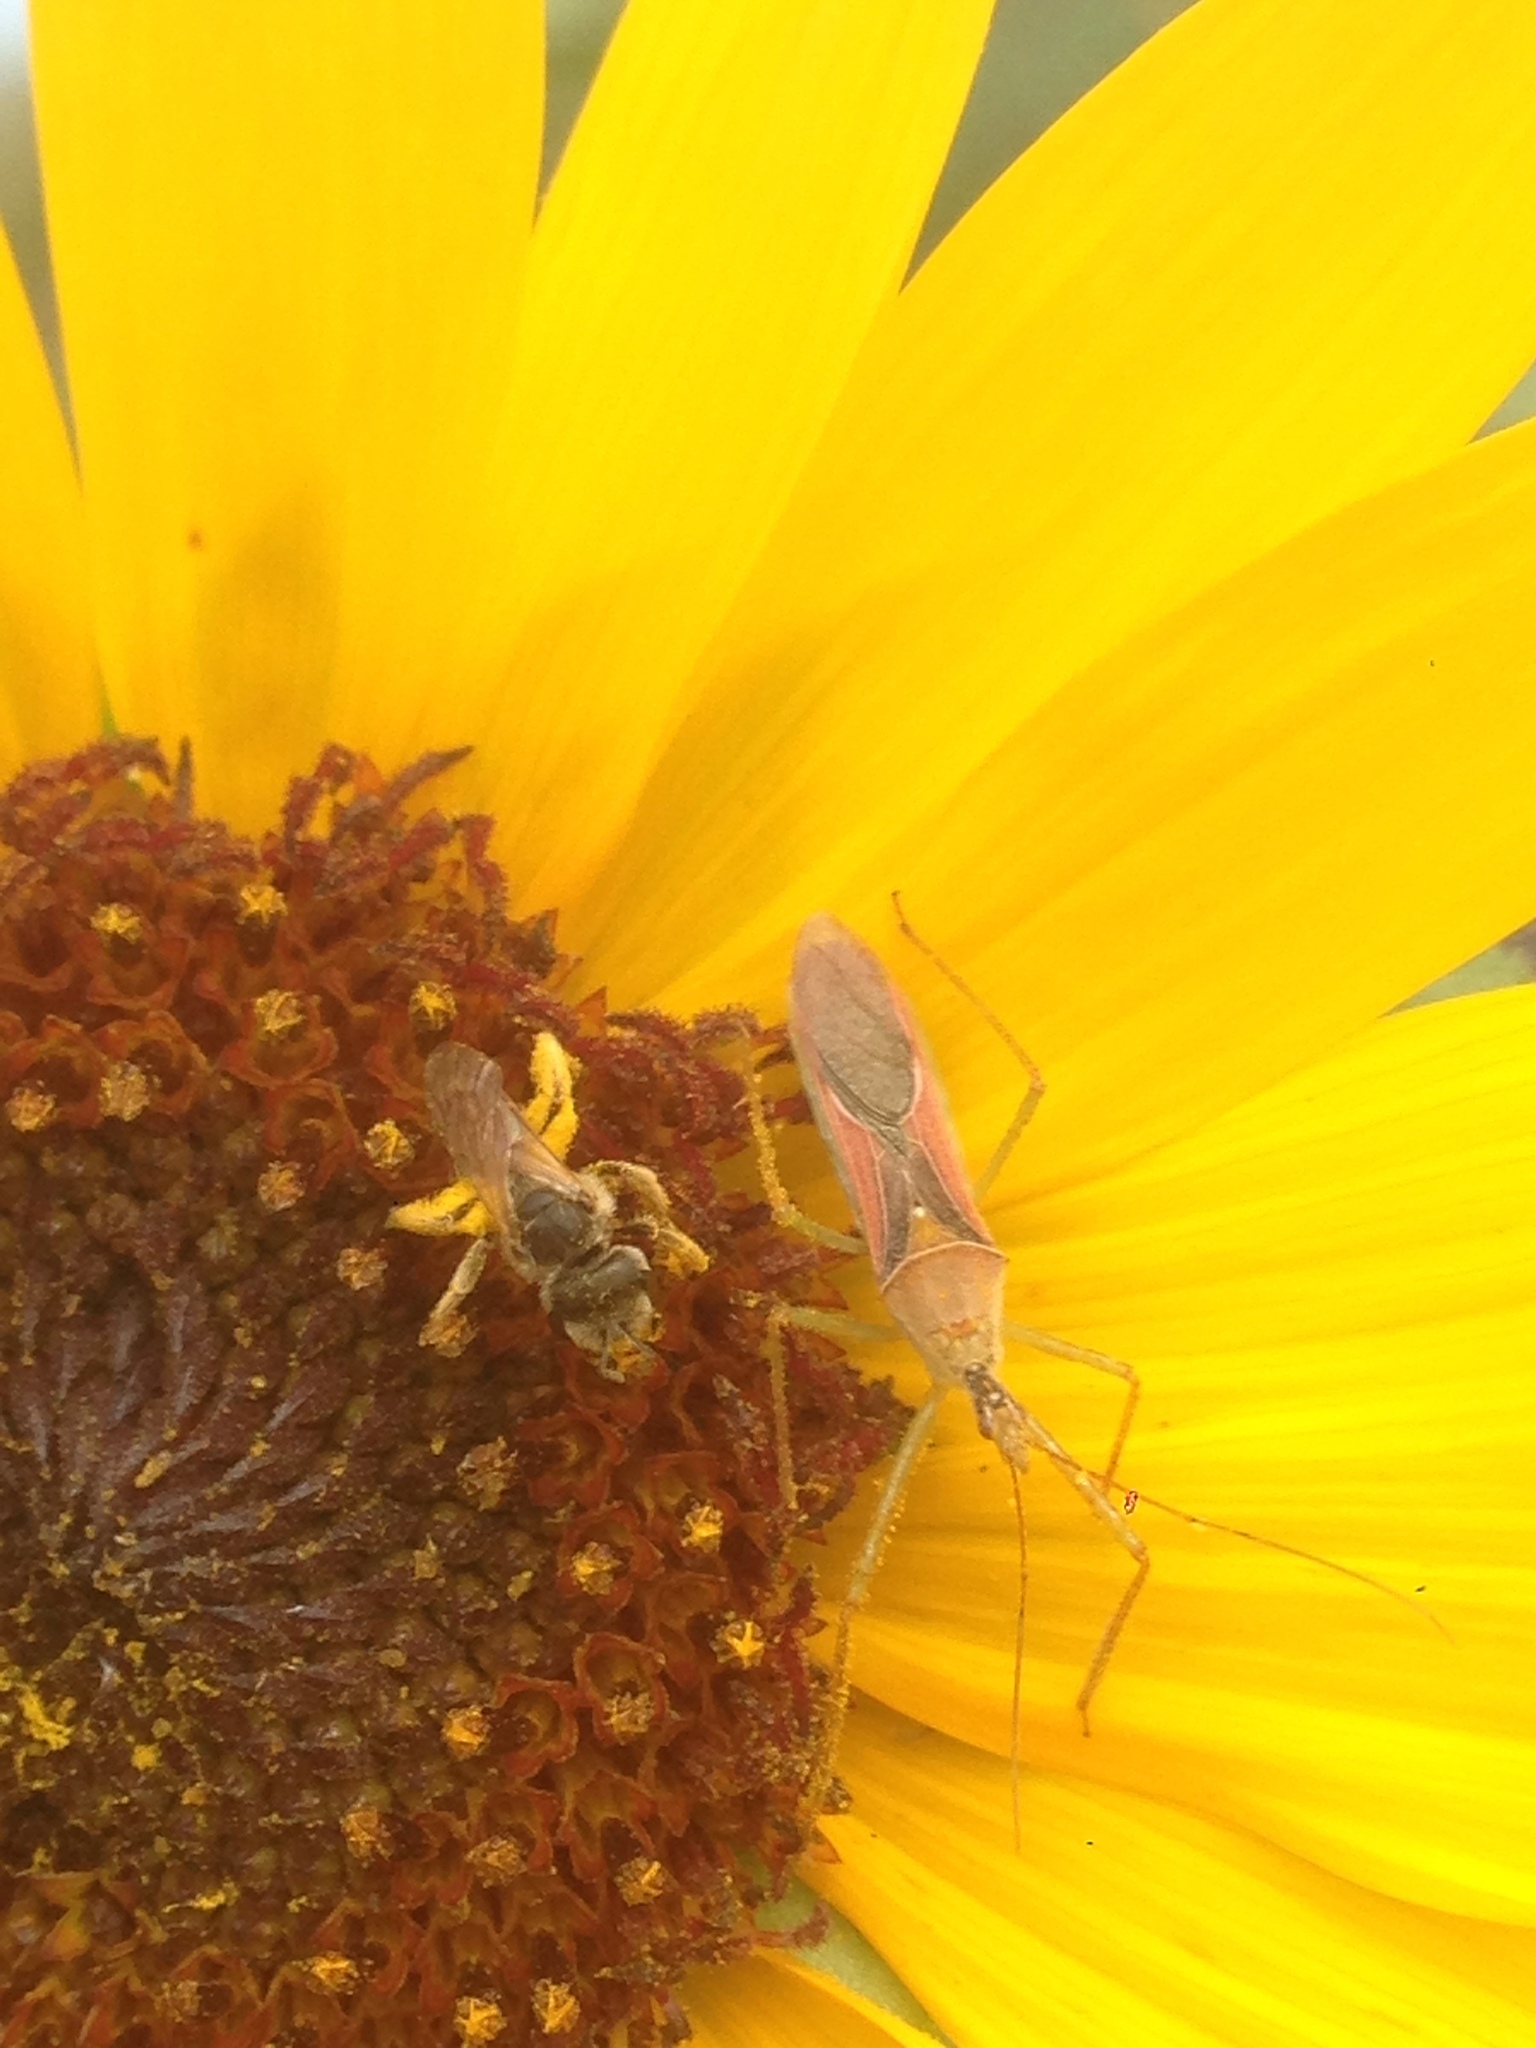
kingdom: Plantae
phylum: Tracheophyta
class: Magnoliopsida
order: Asterales
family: Asteraceae
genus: Helianthus
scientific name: Helianthus annuus
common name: Sunflower
